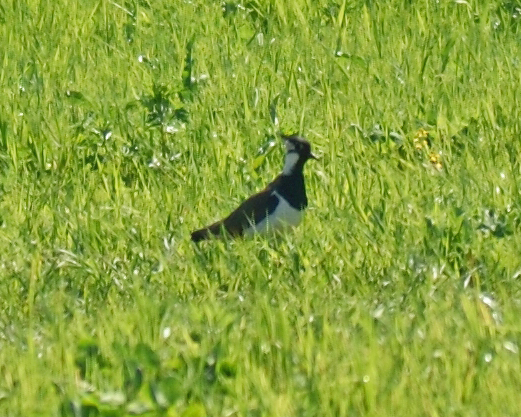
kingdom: Animalia
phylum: Chordata
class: Aves
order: Charadriiformes
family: Charadriidae
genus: Vanellus
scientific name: Vanellus vanellus
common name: Northern lapwing
